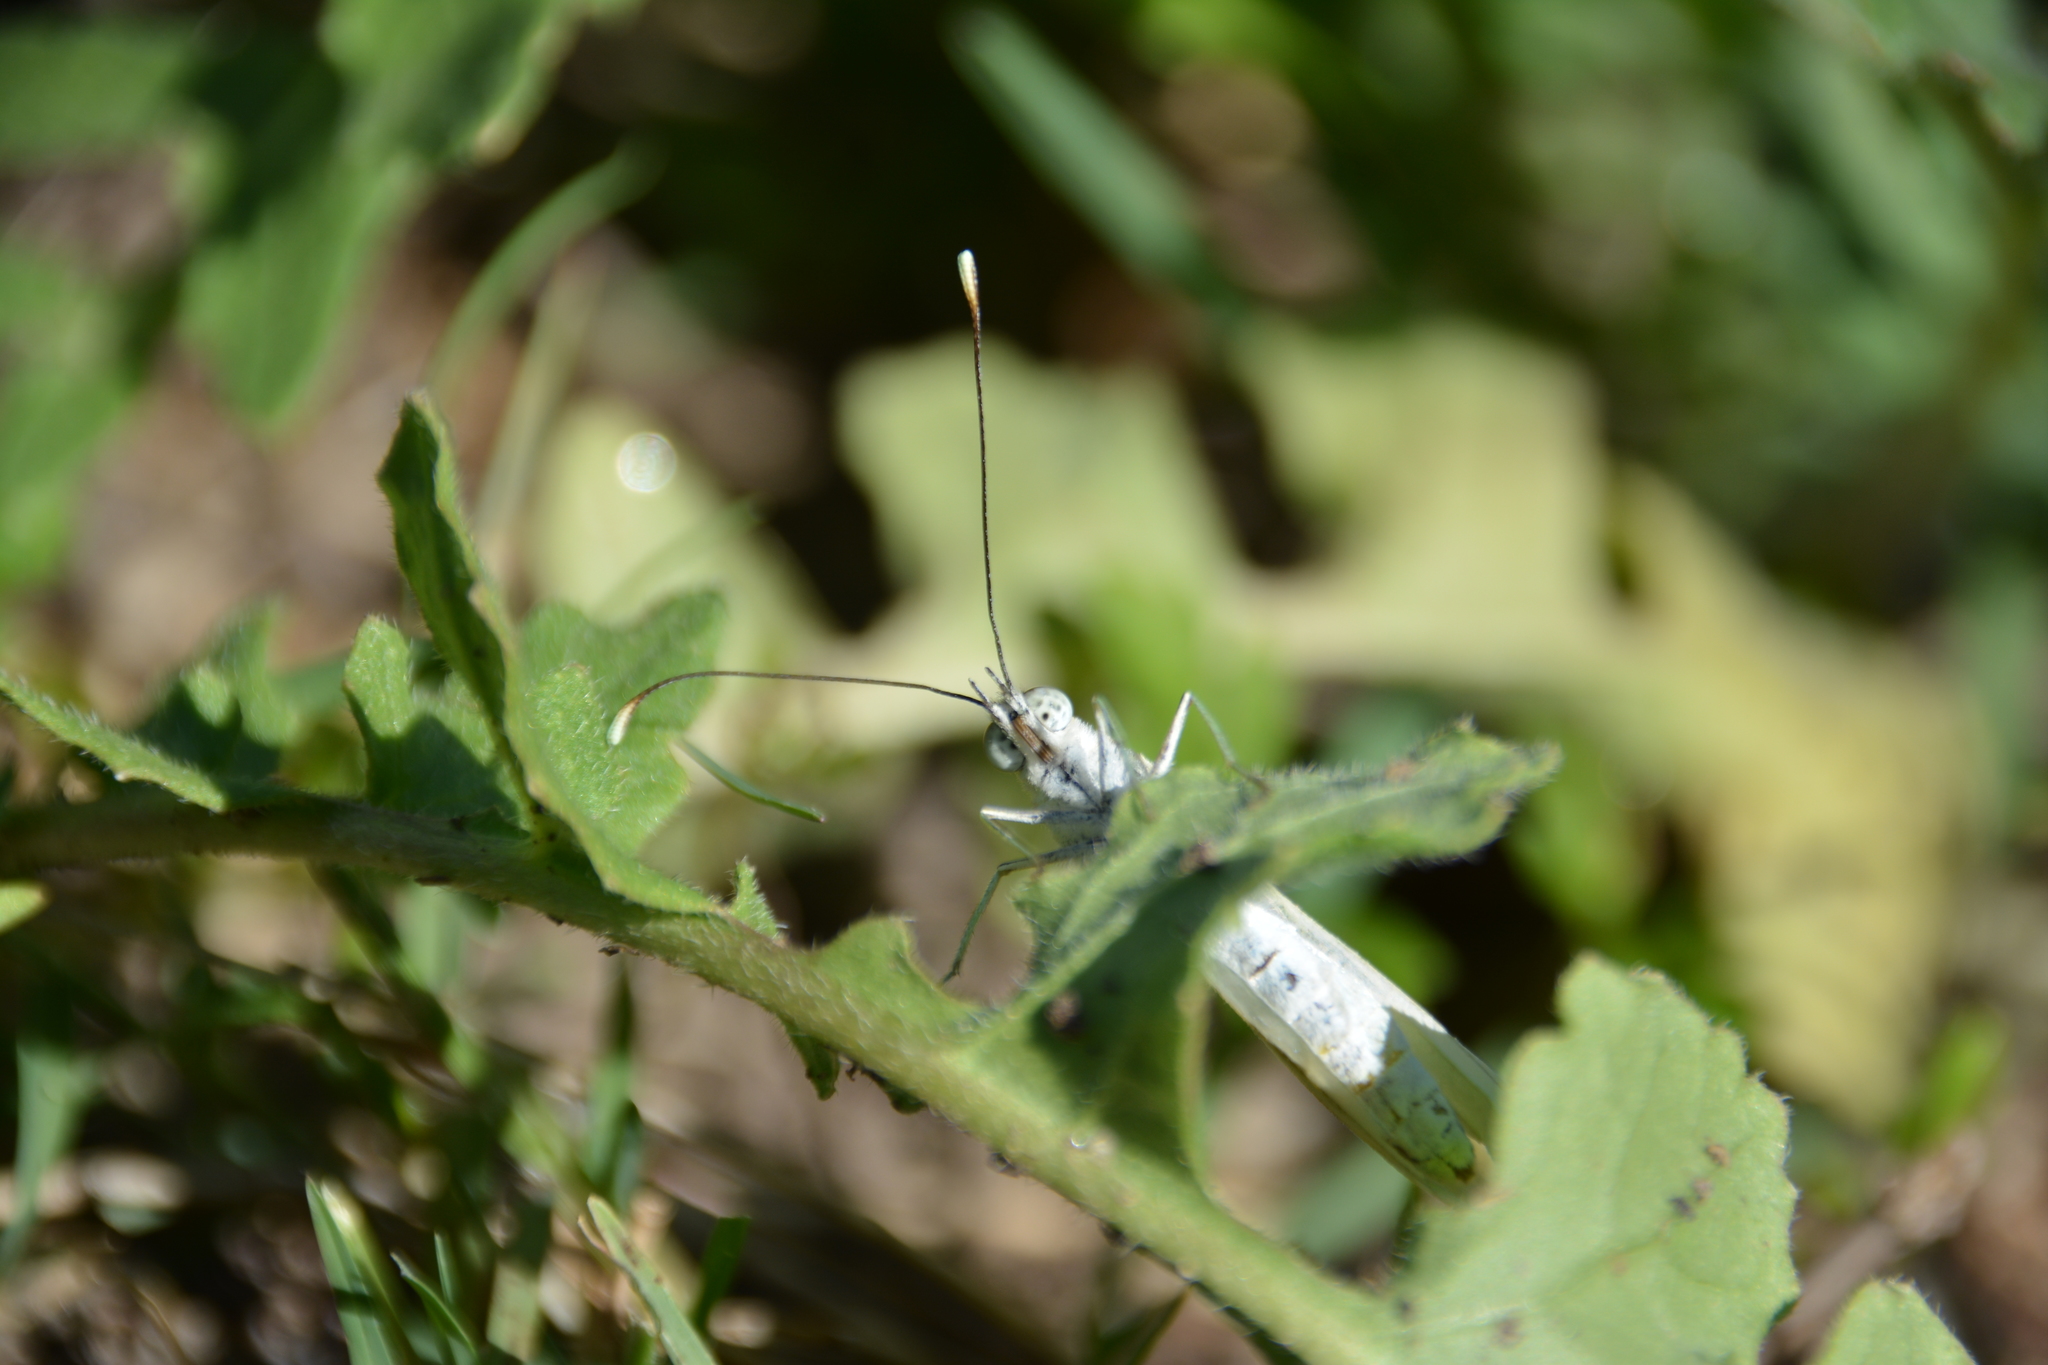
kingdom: Animalia
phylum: Arthropoda
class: Insecta
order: Lepidoptera
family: Pieridae
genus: Ascia
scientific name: Ascia monuste
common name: Great southern white
